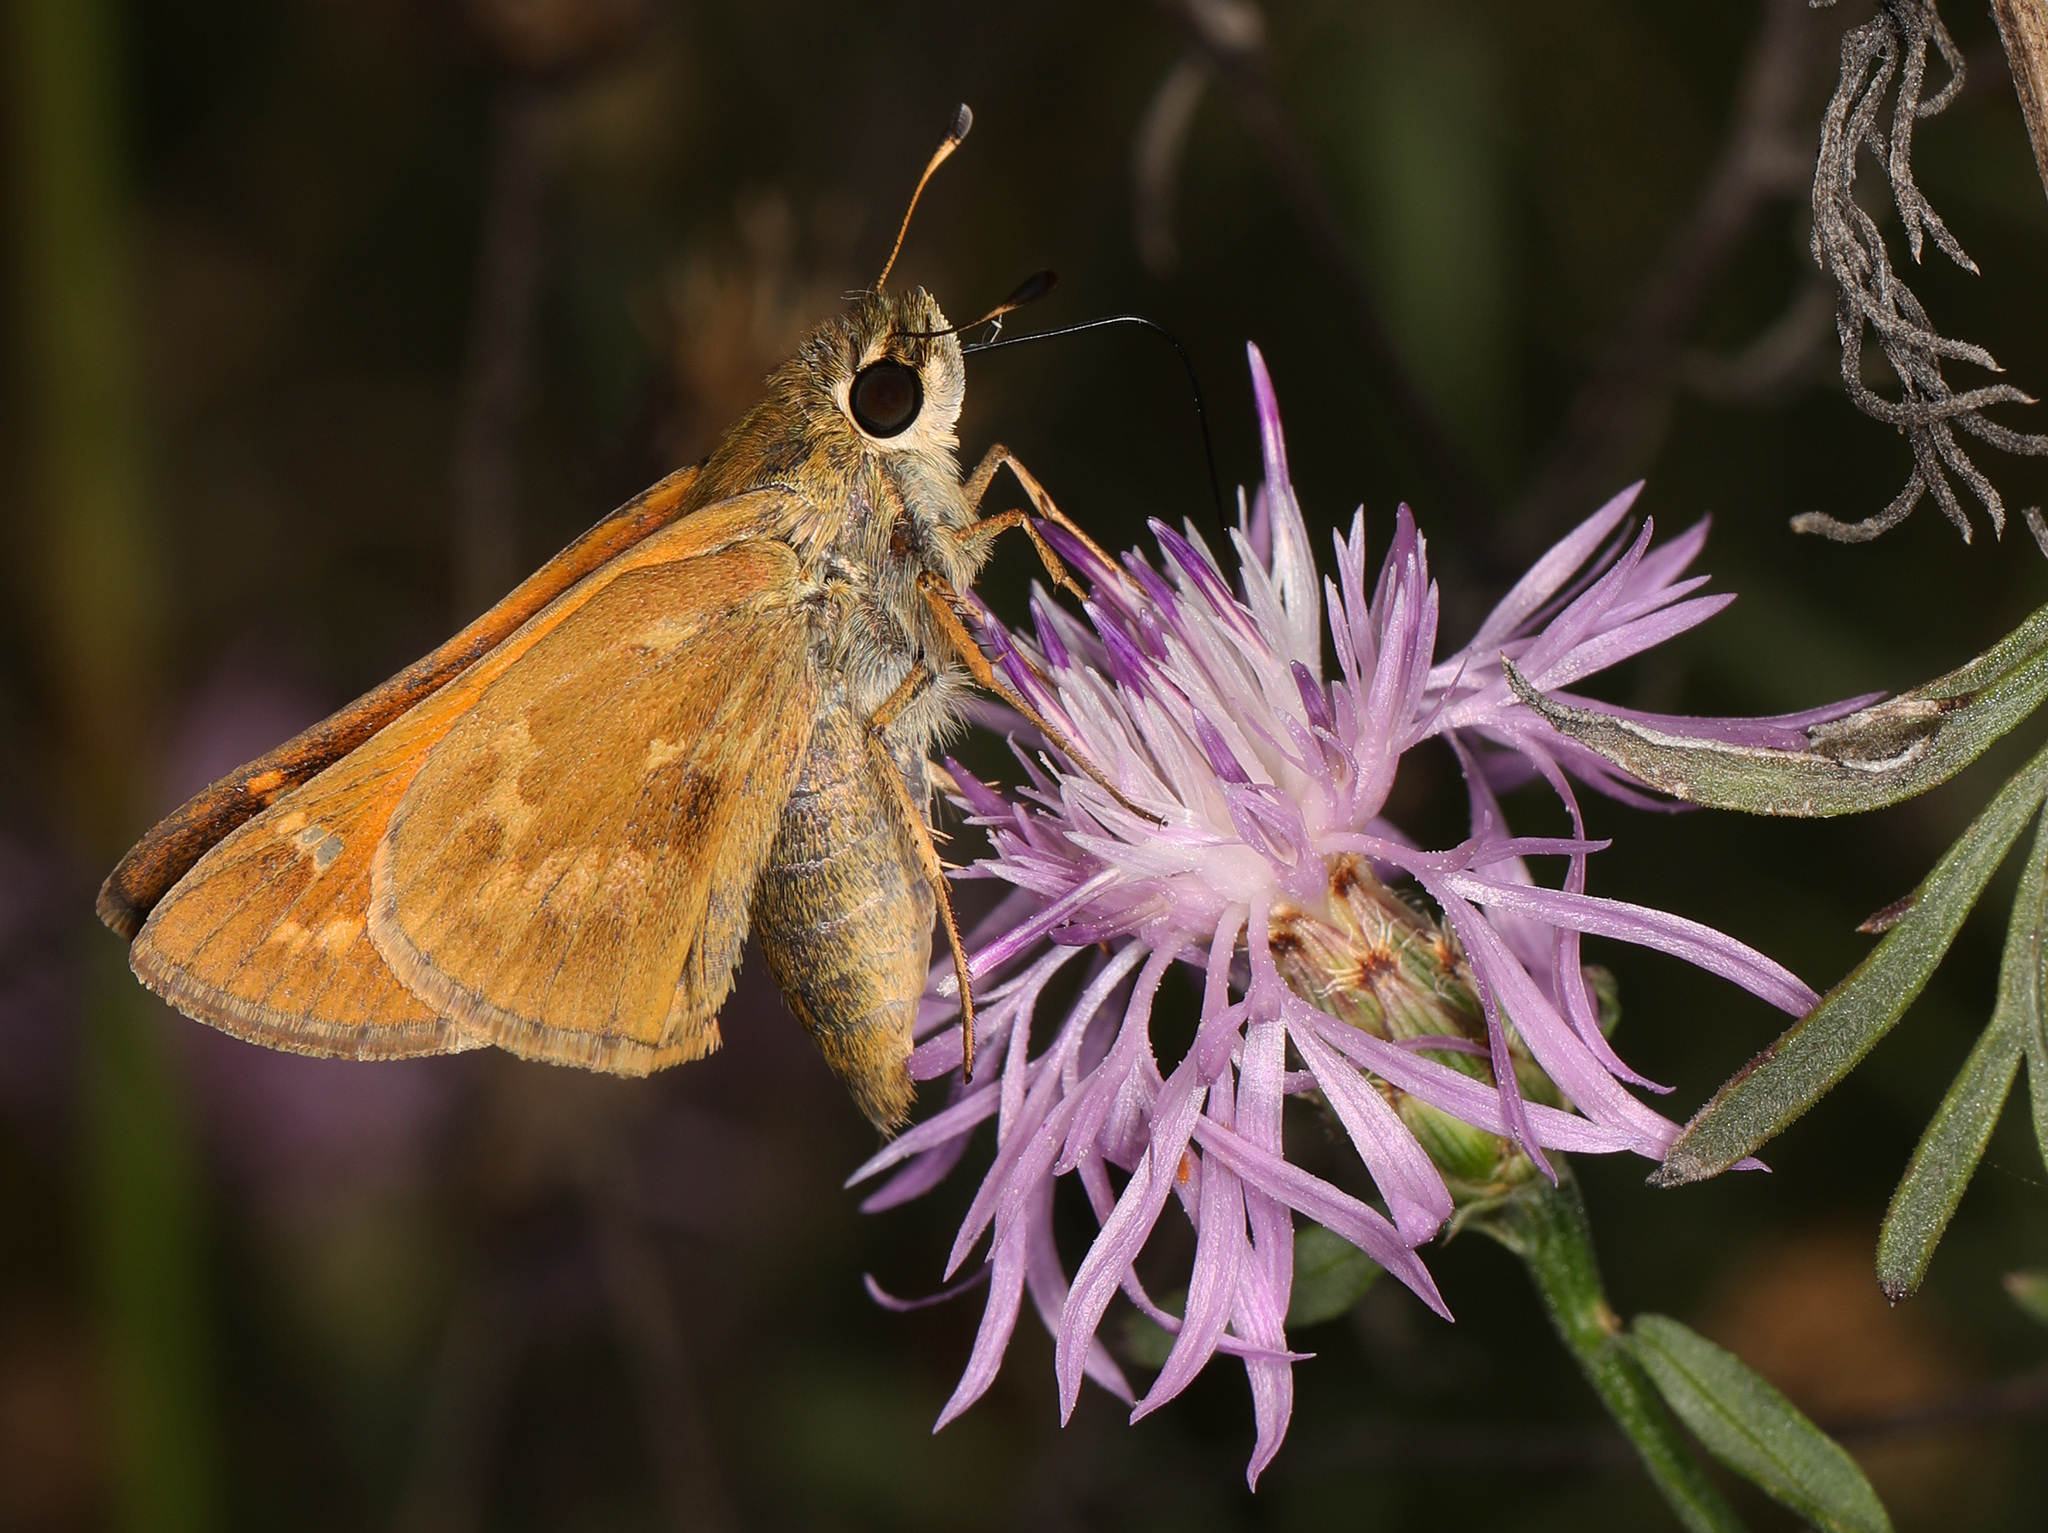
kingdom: Animalia
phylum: Arthropoda
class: Insecta
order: Lepidoptera
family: Hesperiidae
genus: Atalopedes
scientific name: Atalopedes
